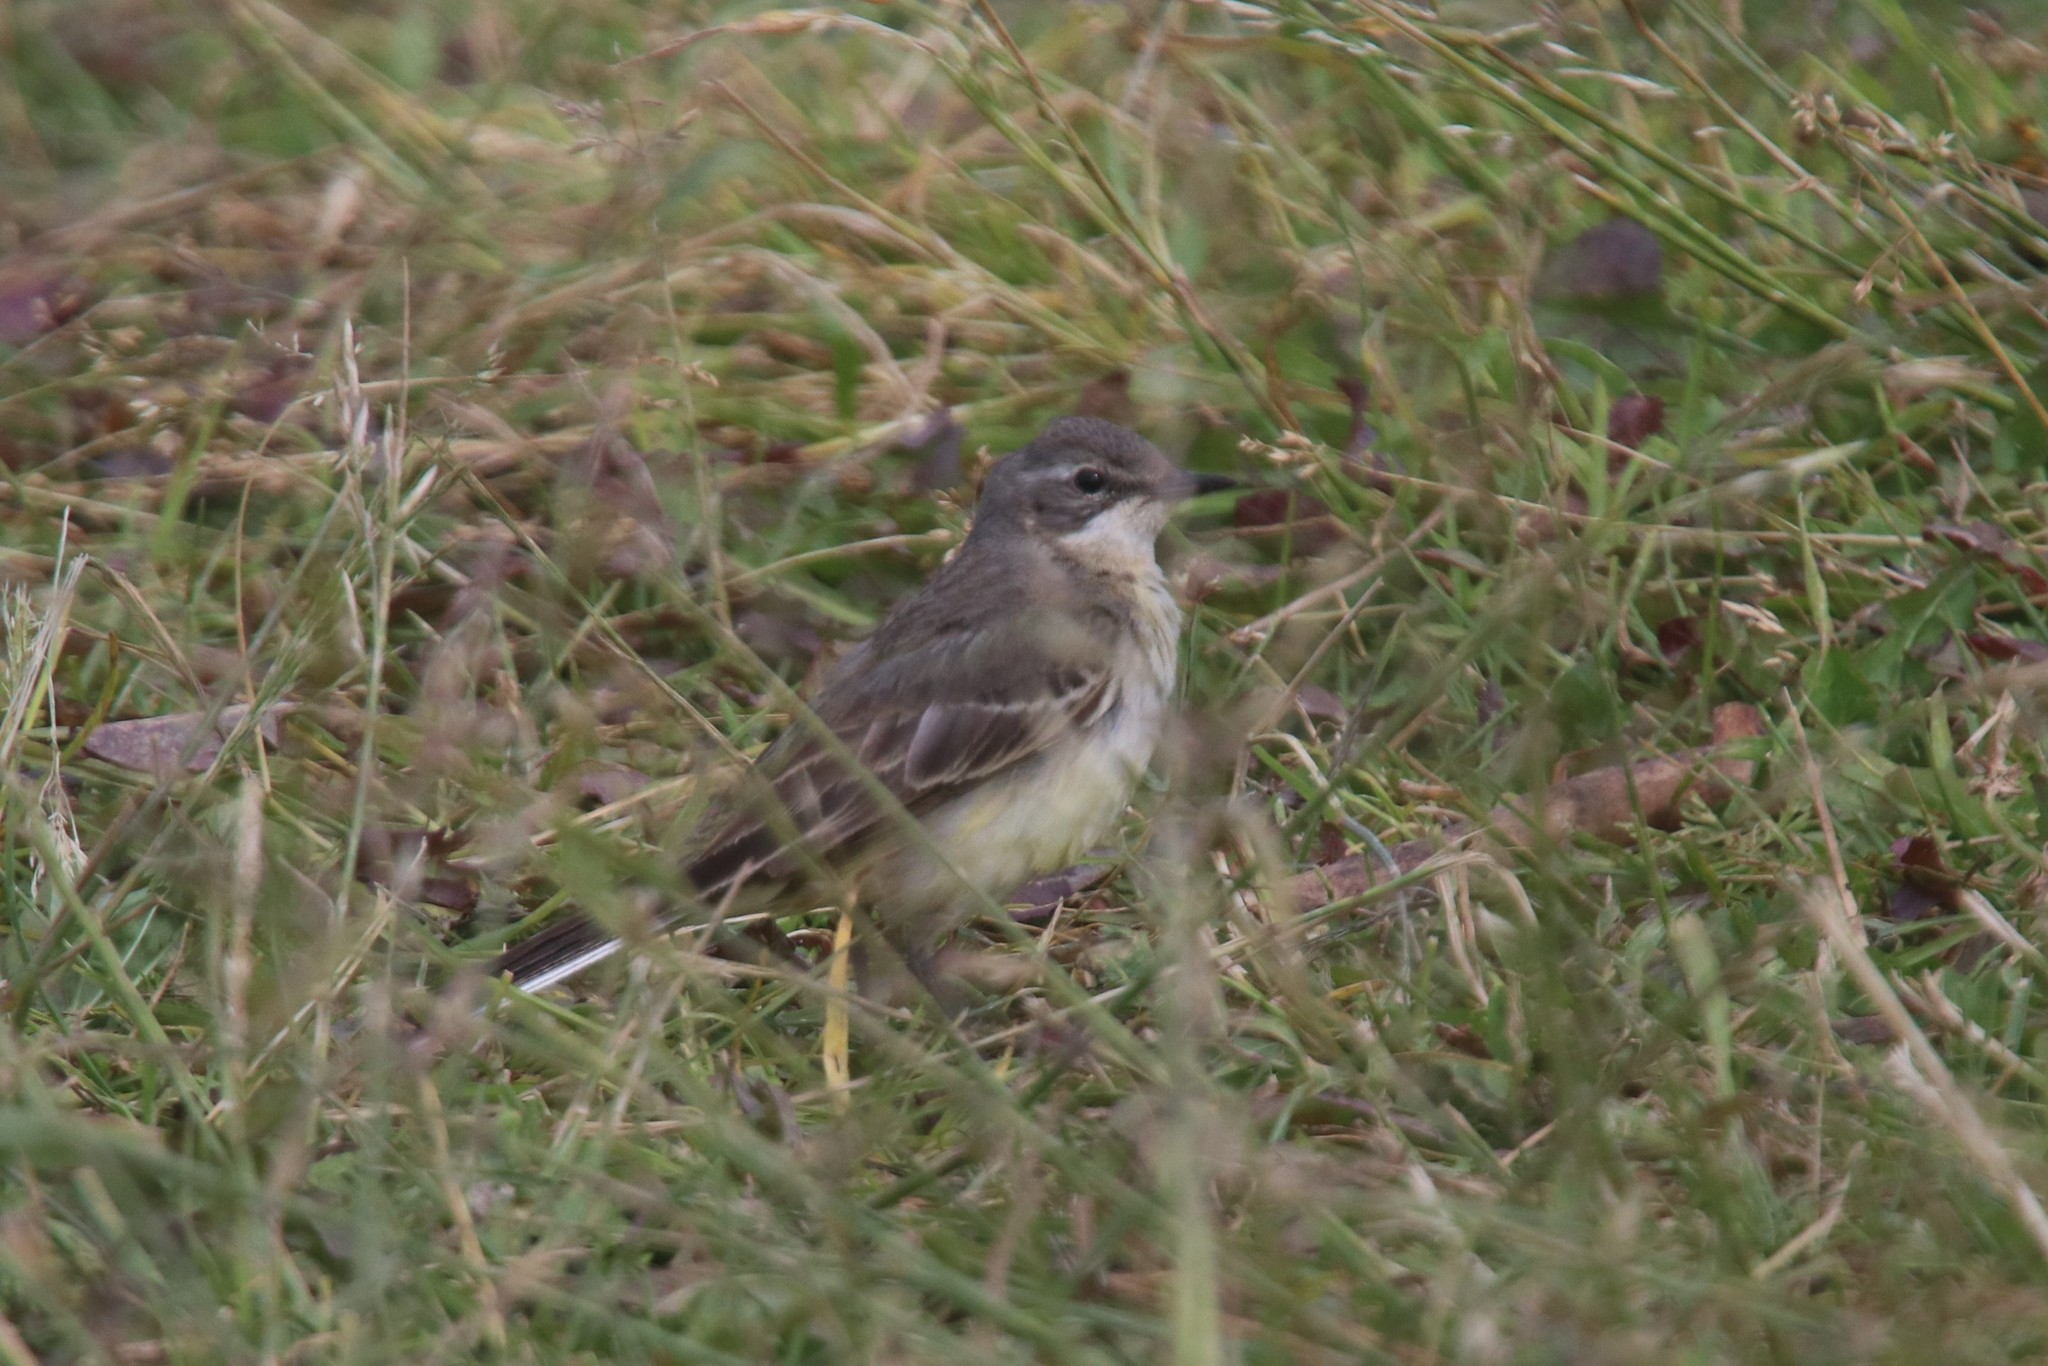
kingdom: Animalia
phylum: Chordata
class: Aves
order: Passeriformes
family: Motacillidae
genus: Motacilla
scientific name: Motacilla flava
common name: Western yellow wagtail
